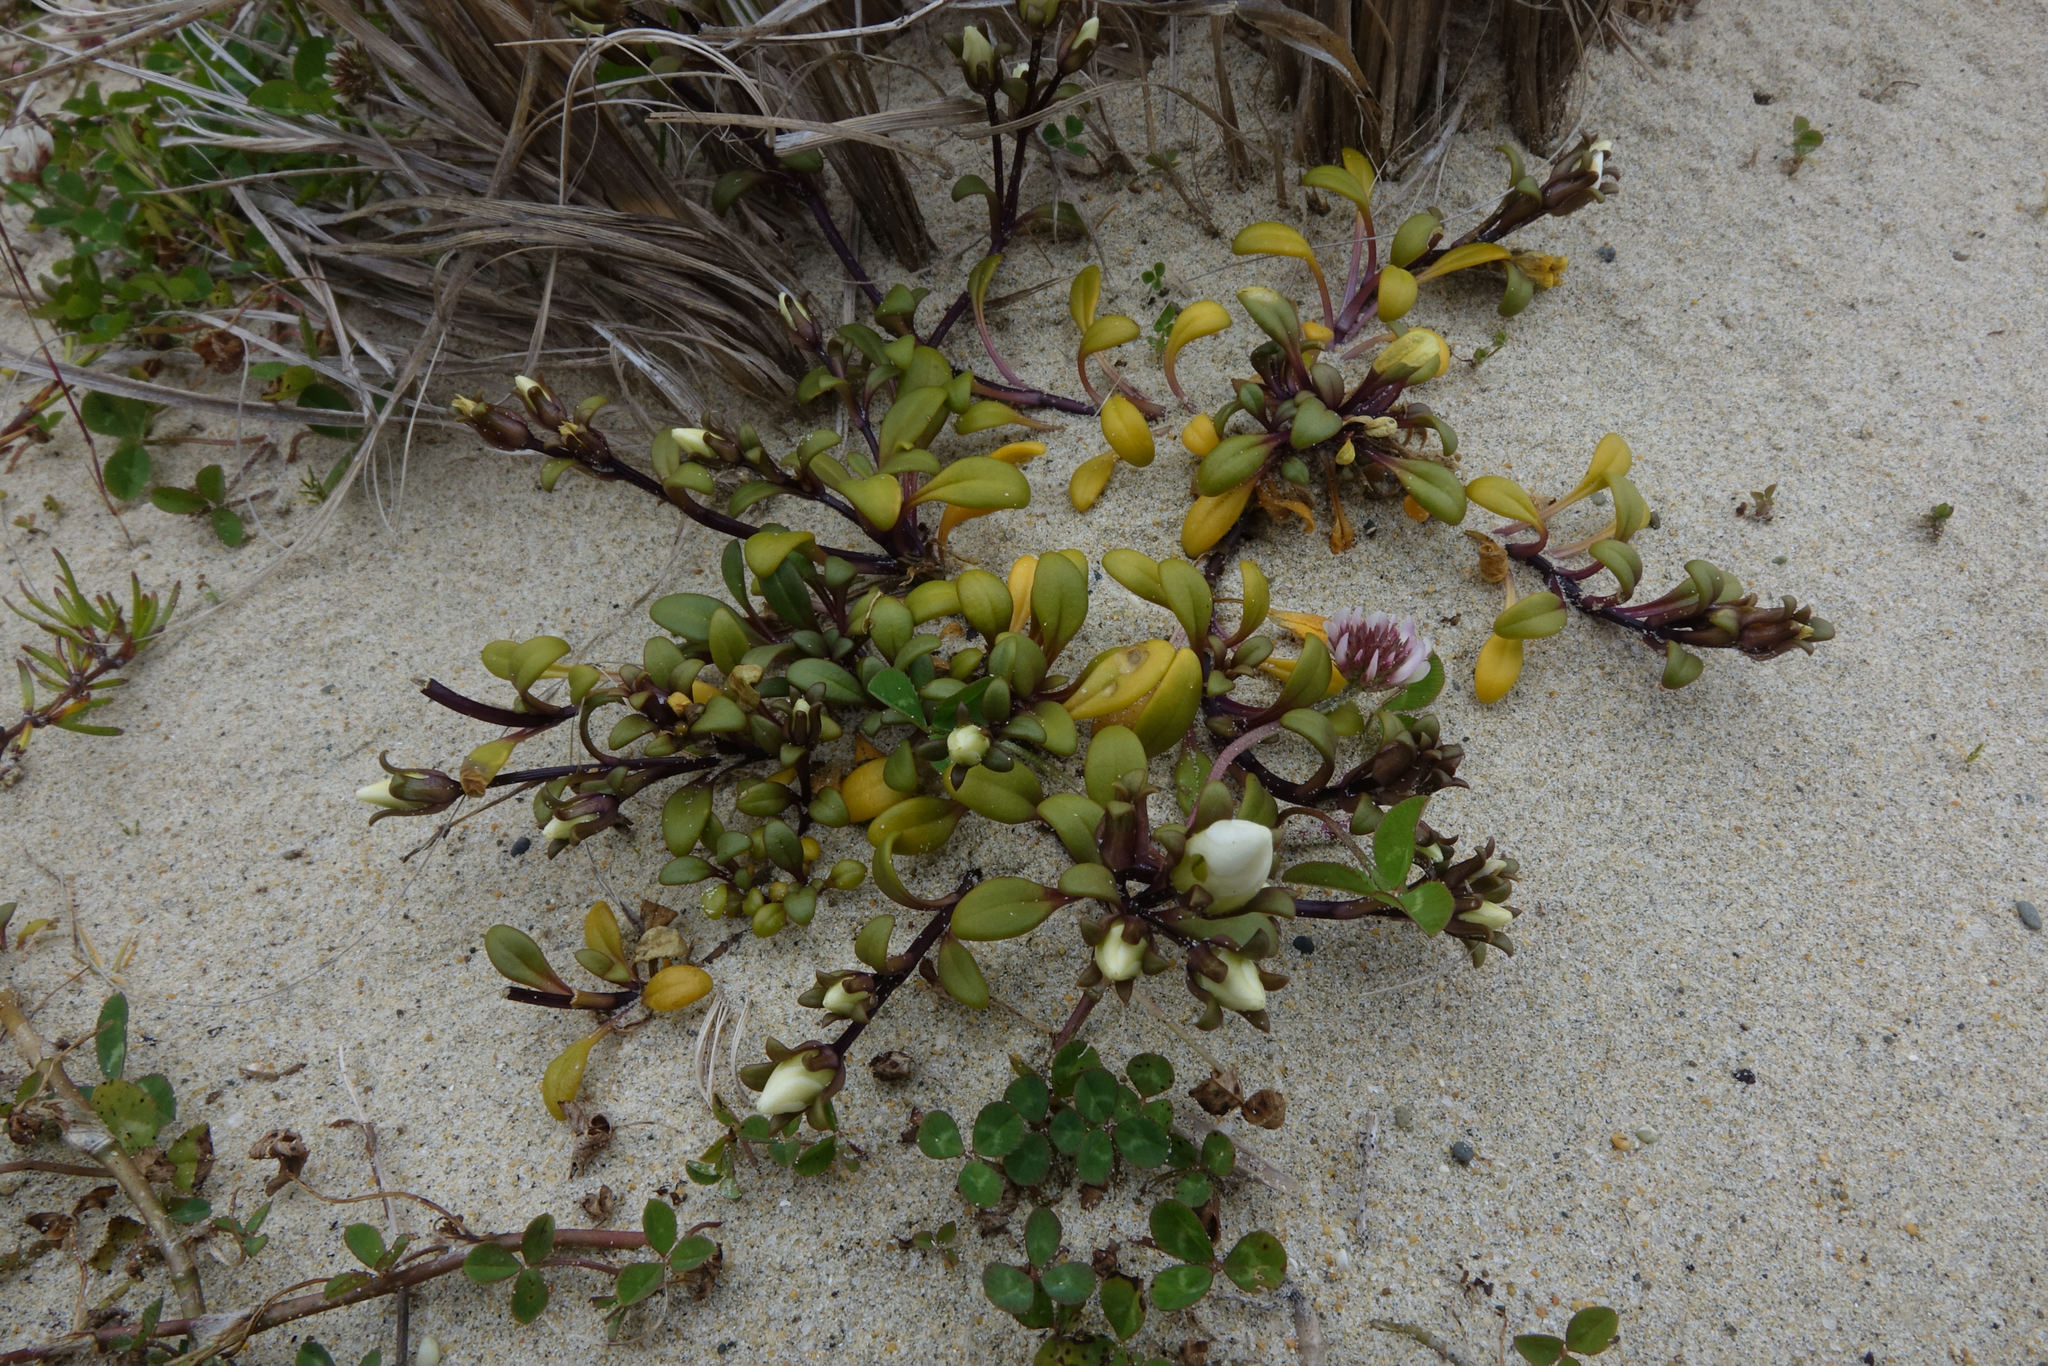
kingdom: Plantae
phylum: Tracheophyta
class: Magnoliopsida
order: Gentianales
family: Gentianaceae
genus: Gentianella
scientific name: Gentianella saxosa
